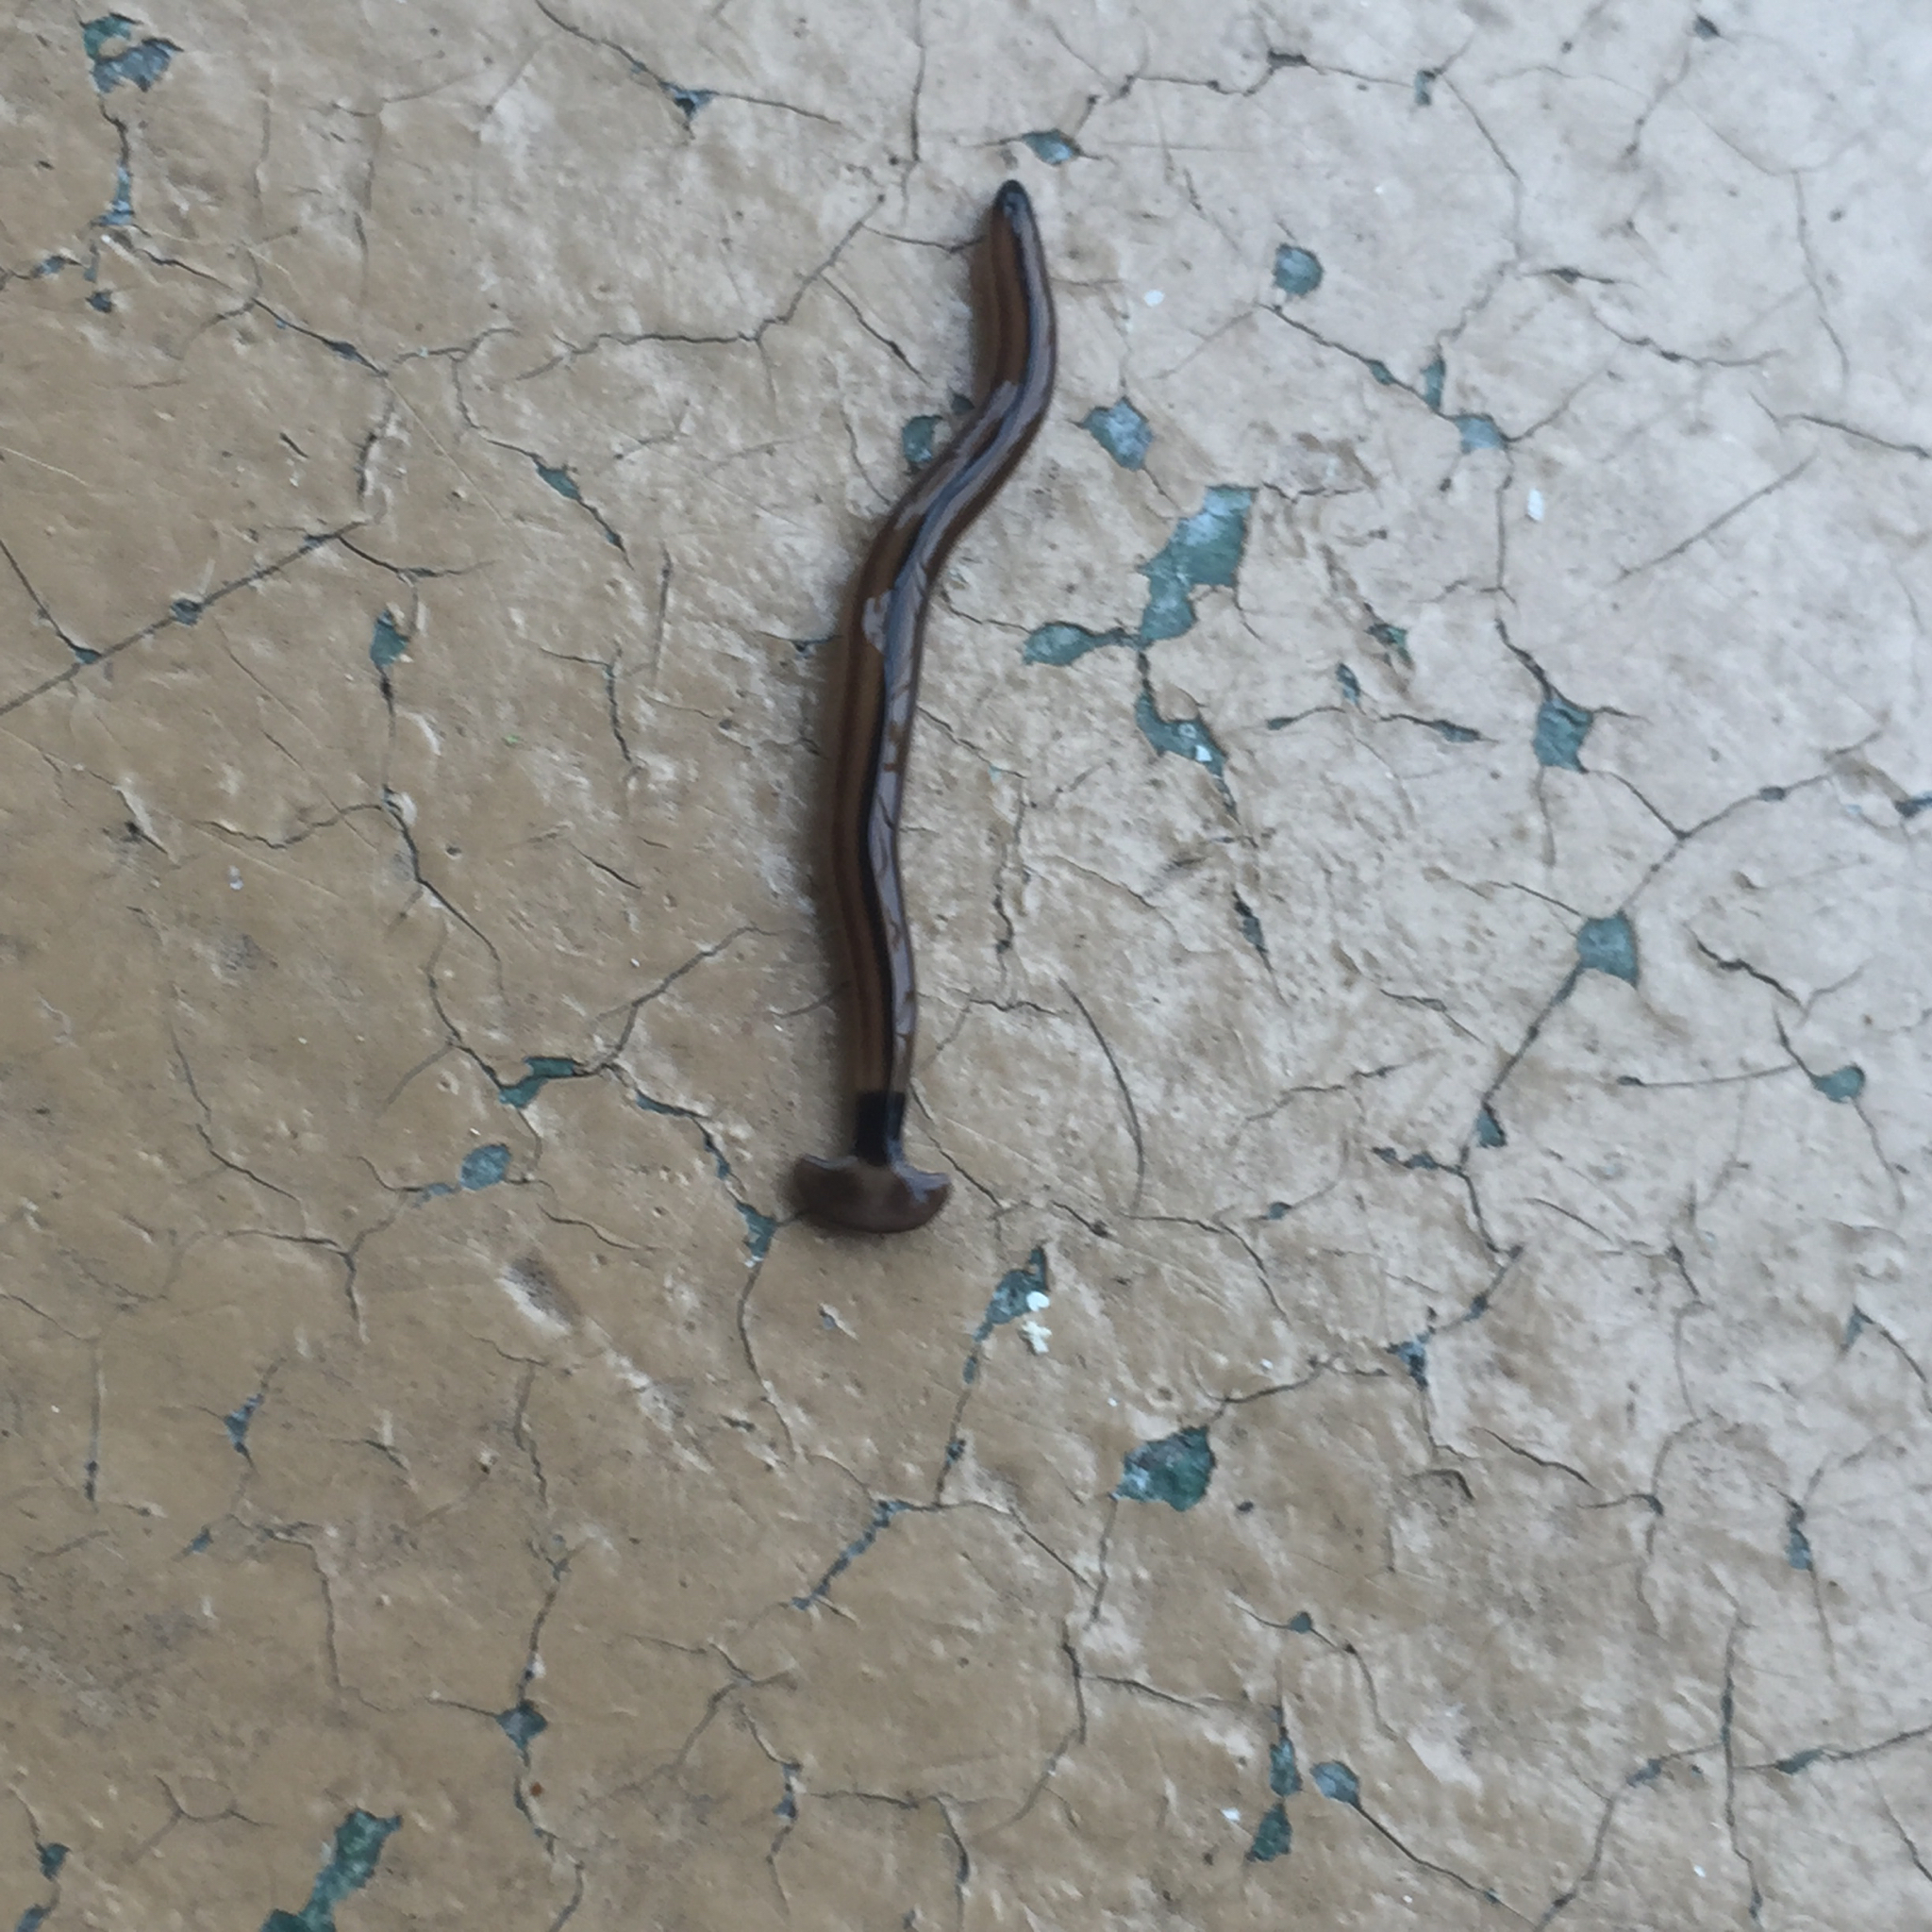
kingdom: Animalia
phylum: Platyhelminthes
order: Tricladida
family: Geoplanidae
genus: Bipalium
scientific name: Bipalium vagum
